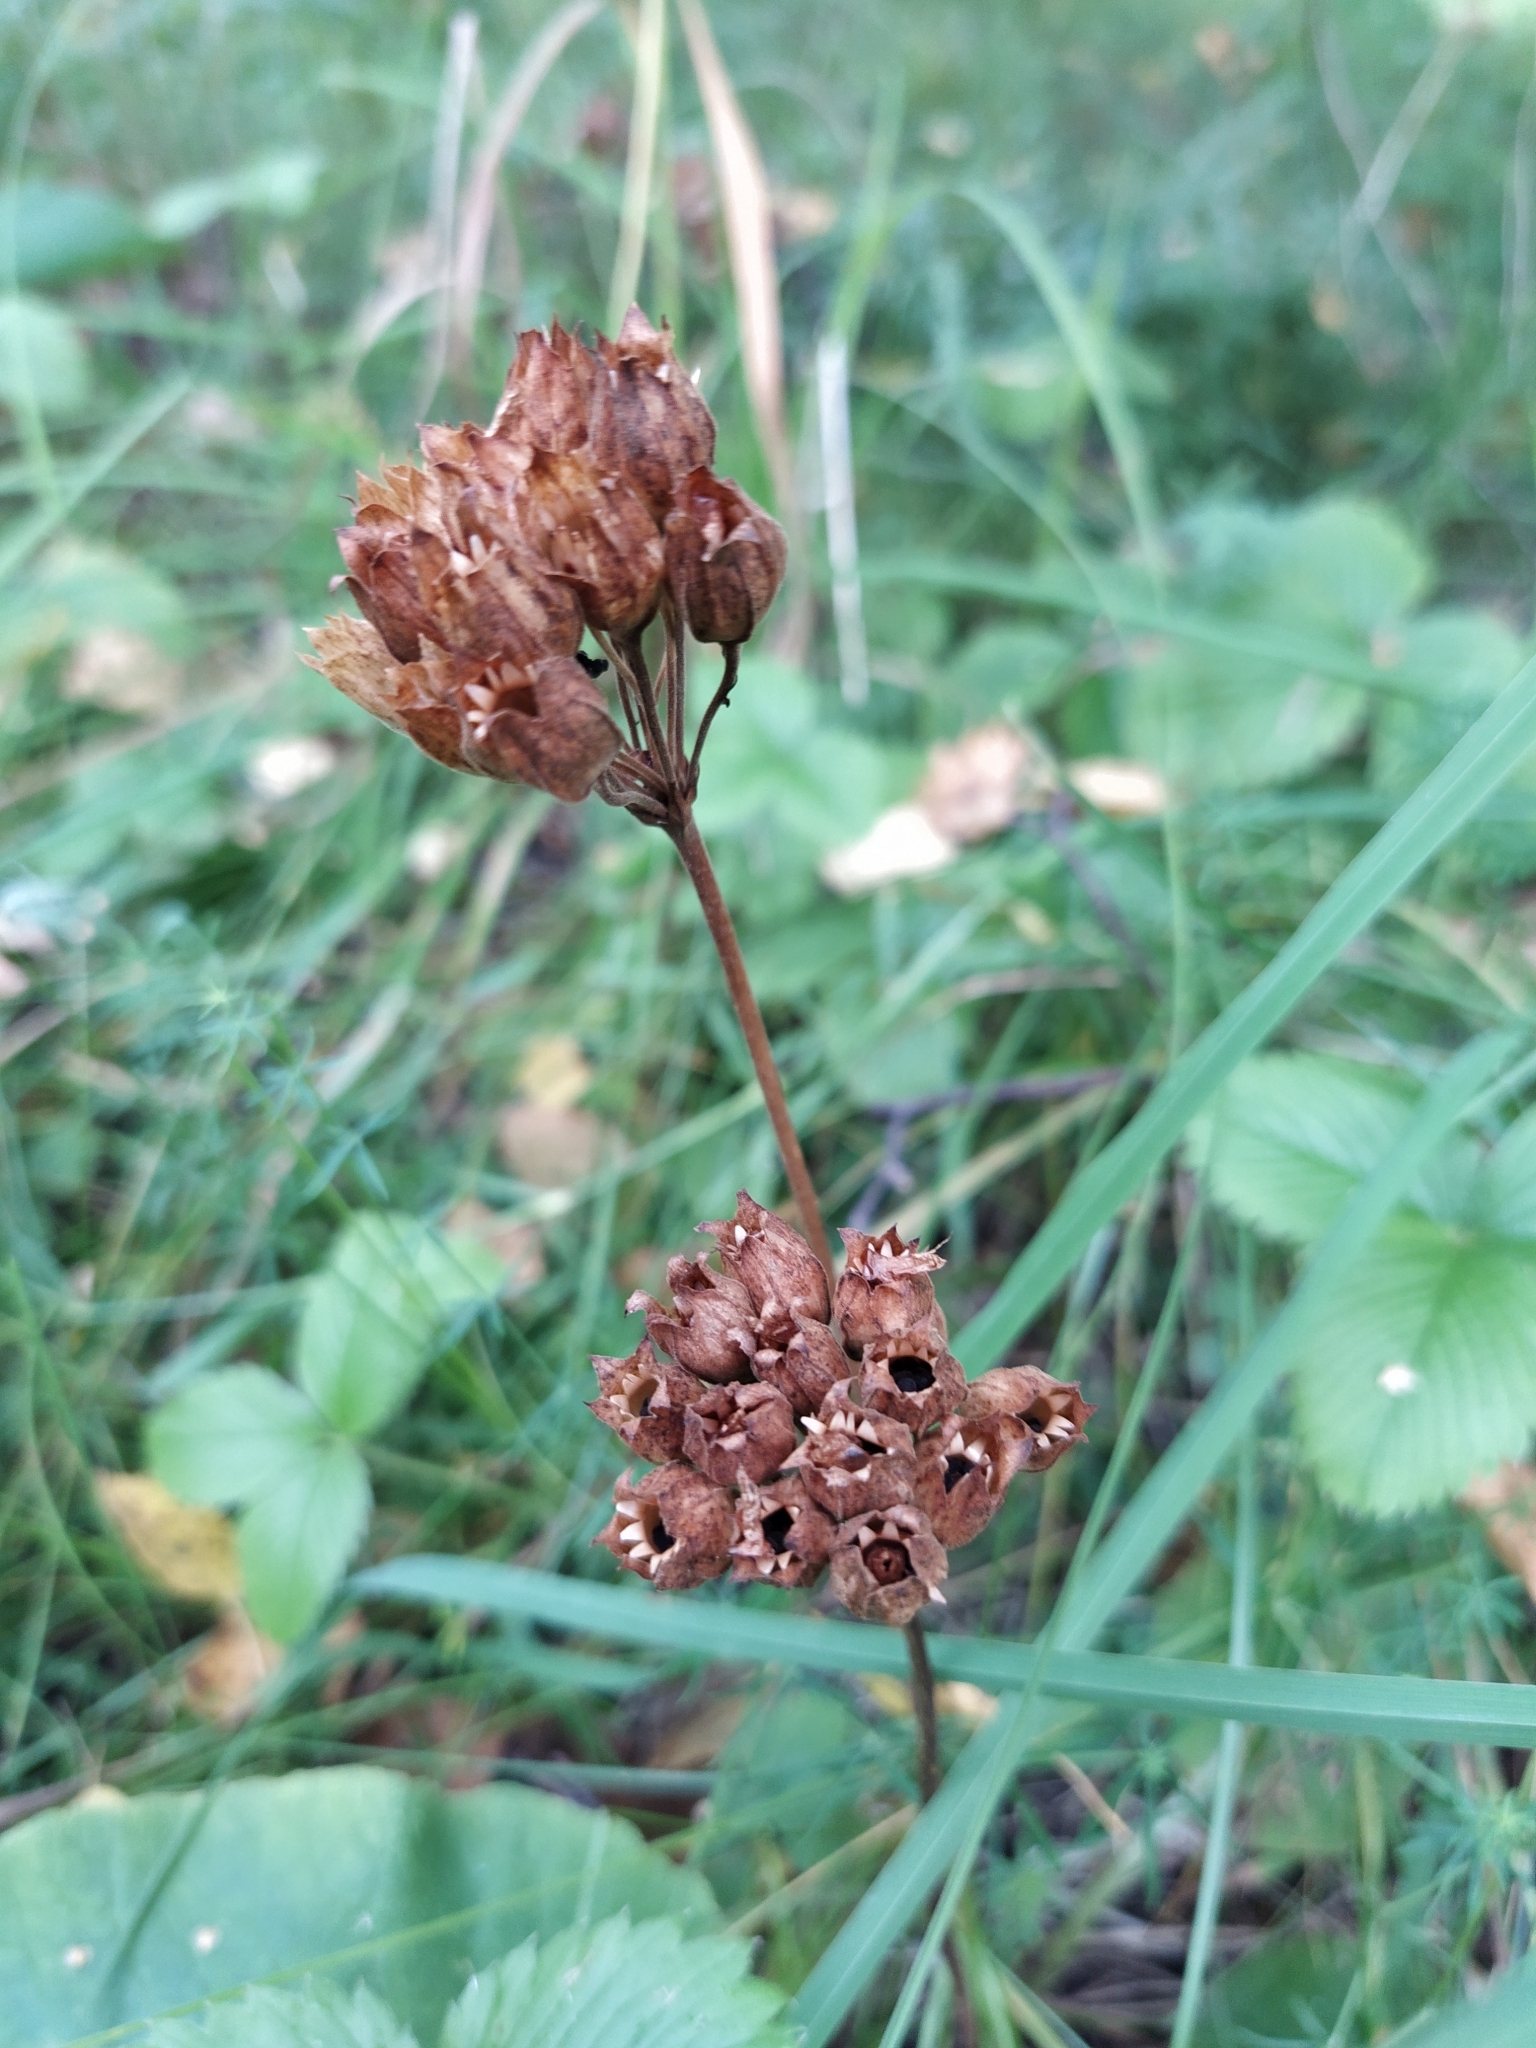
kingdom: Plantae
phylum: Tracheophyta
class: Magnoliopsida
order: Ericales
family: Primulaceae
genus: Primula
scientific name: Primula veris
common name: Cowslip
